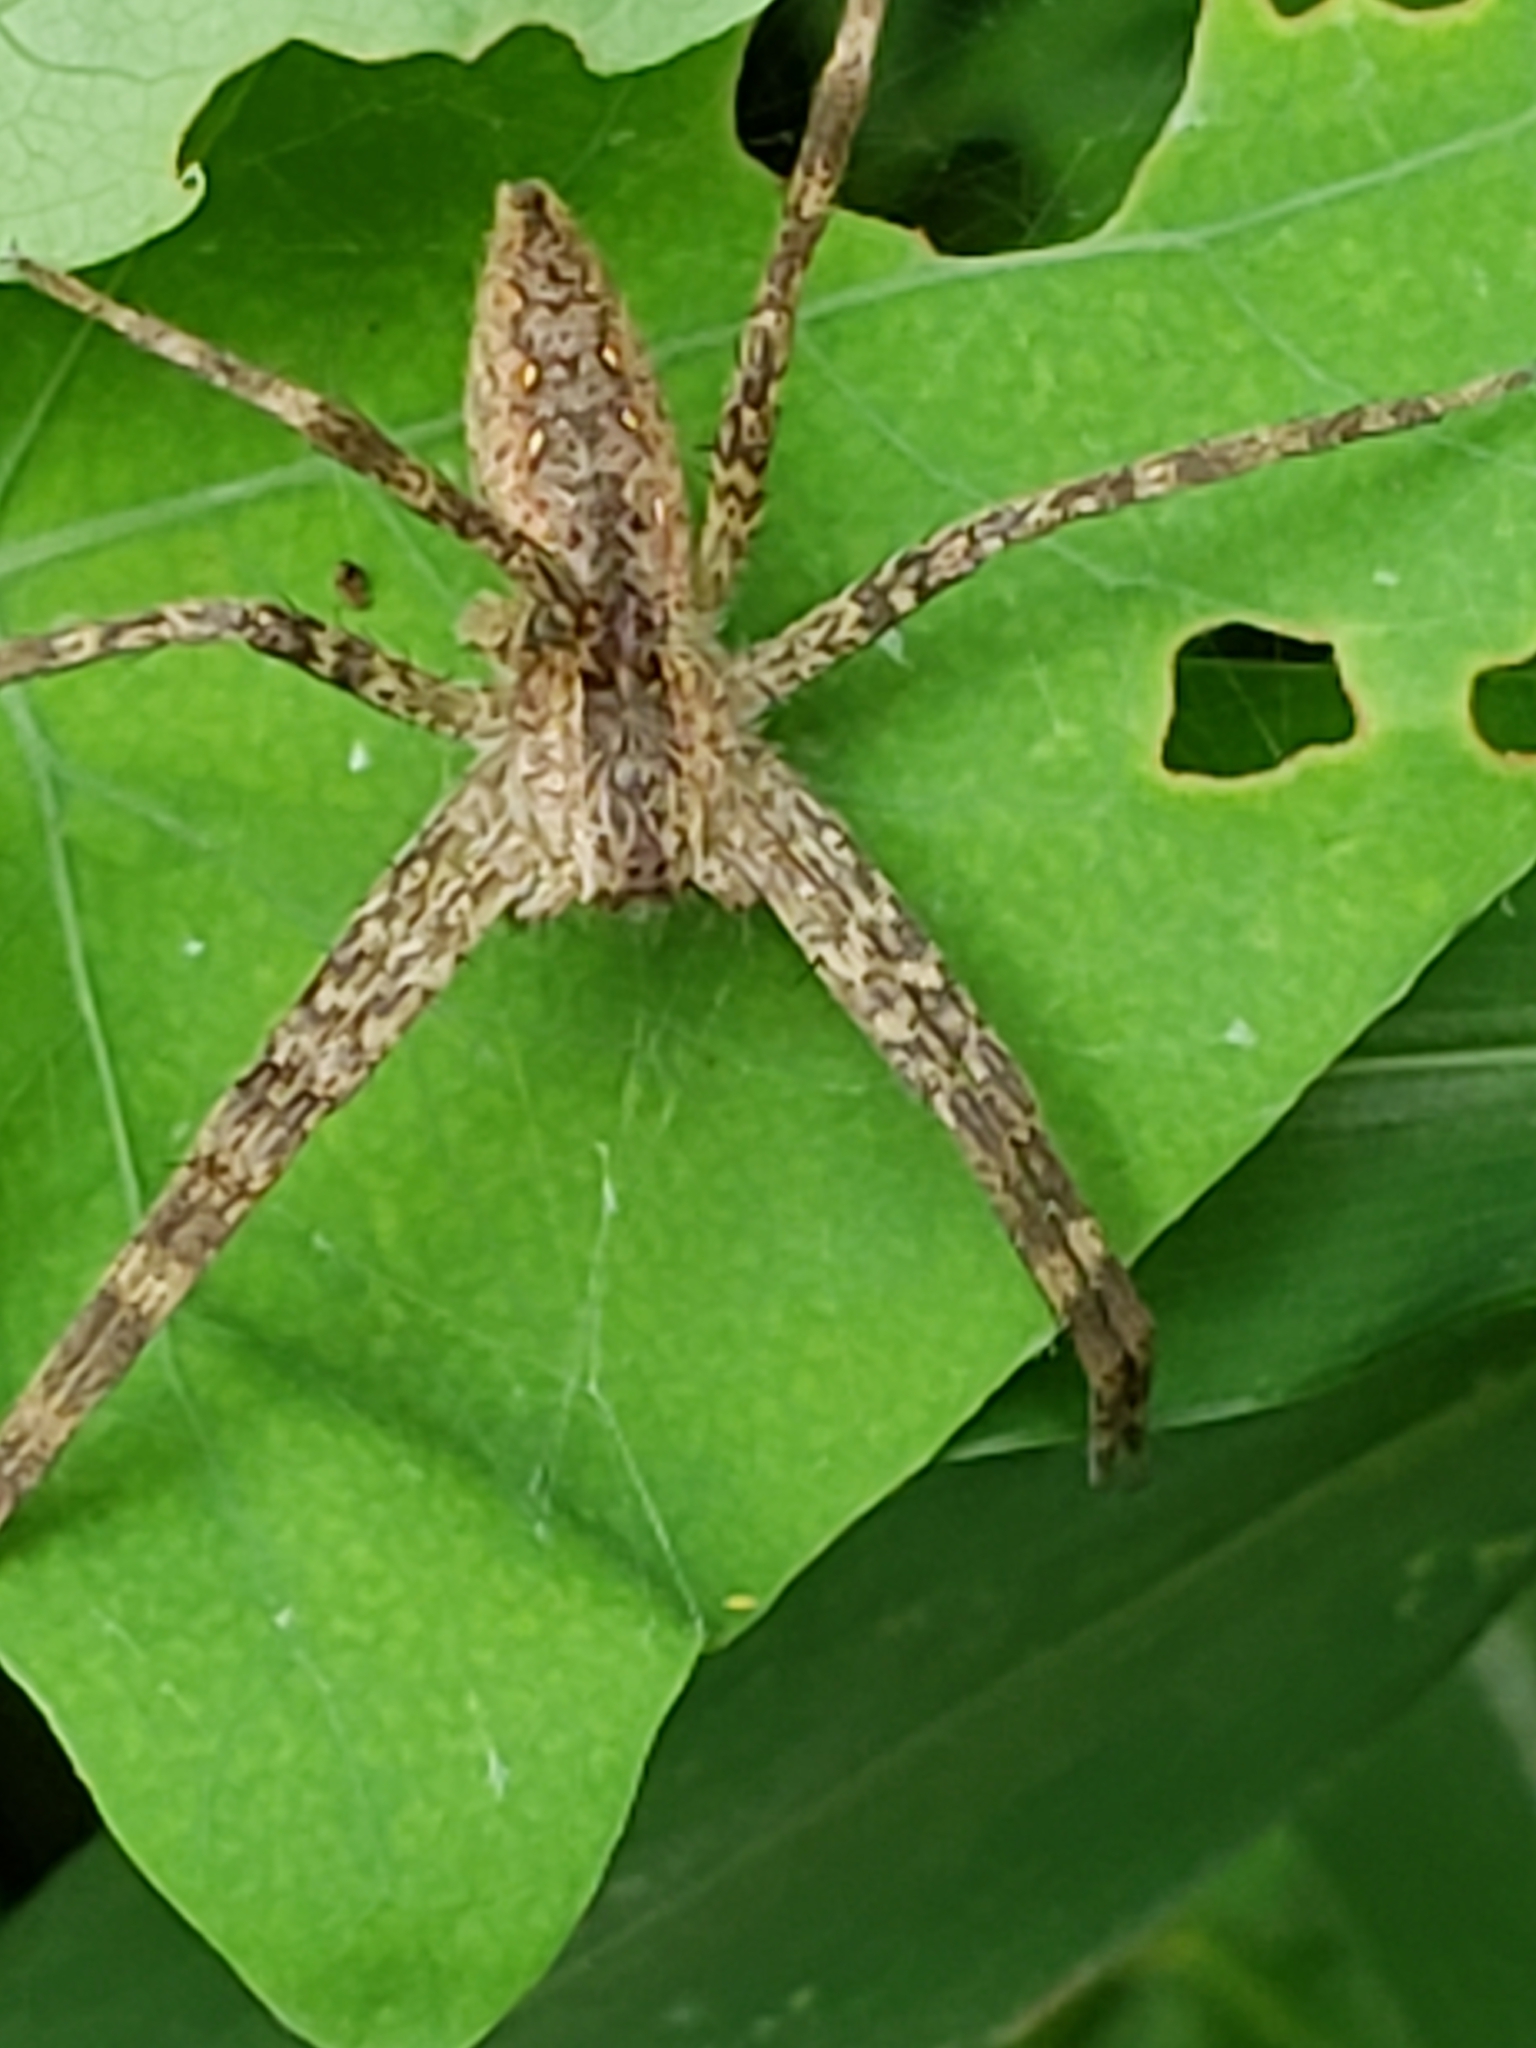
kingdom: Animalia
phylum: Arthropoda
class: Arachnida
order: Araneae
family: Pisauridae
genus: Pisaurina
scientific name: Pisaurina mira
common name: American nursery web spider
